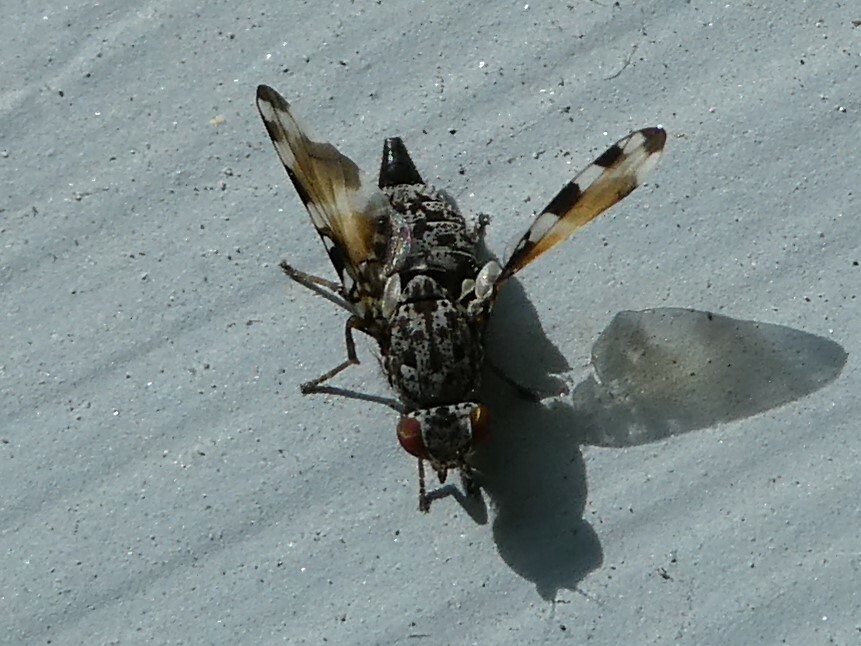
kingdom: Animalia
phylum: Arthropoda
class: Insecta
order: Diptera
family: Ulidiidae
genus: Pseudotephritis
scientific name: Pseudotephritis vau
